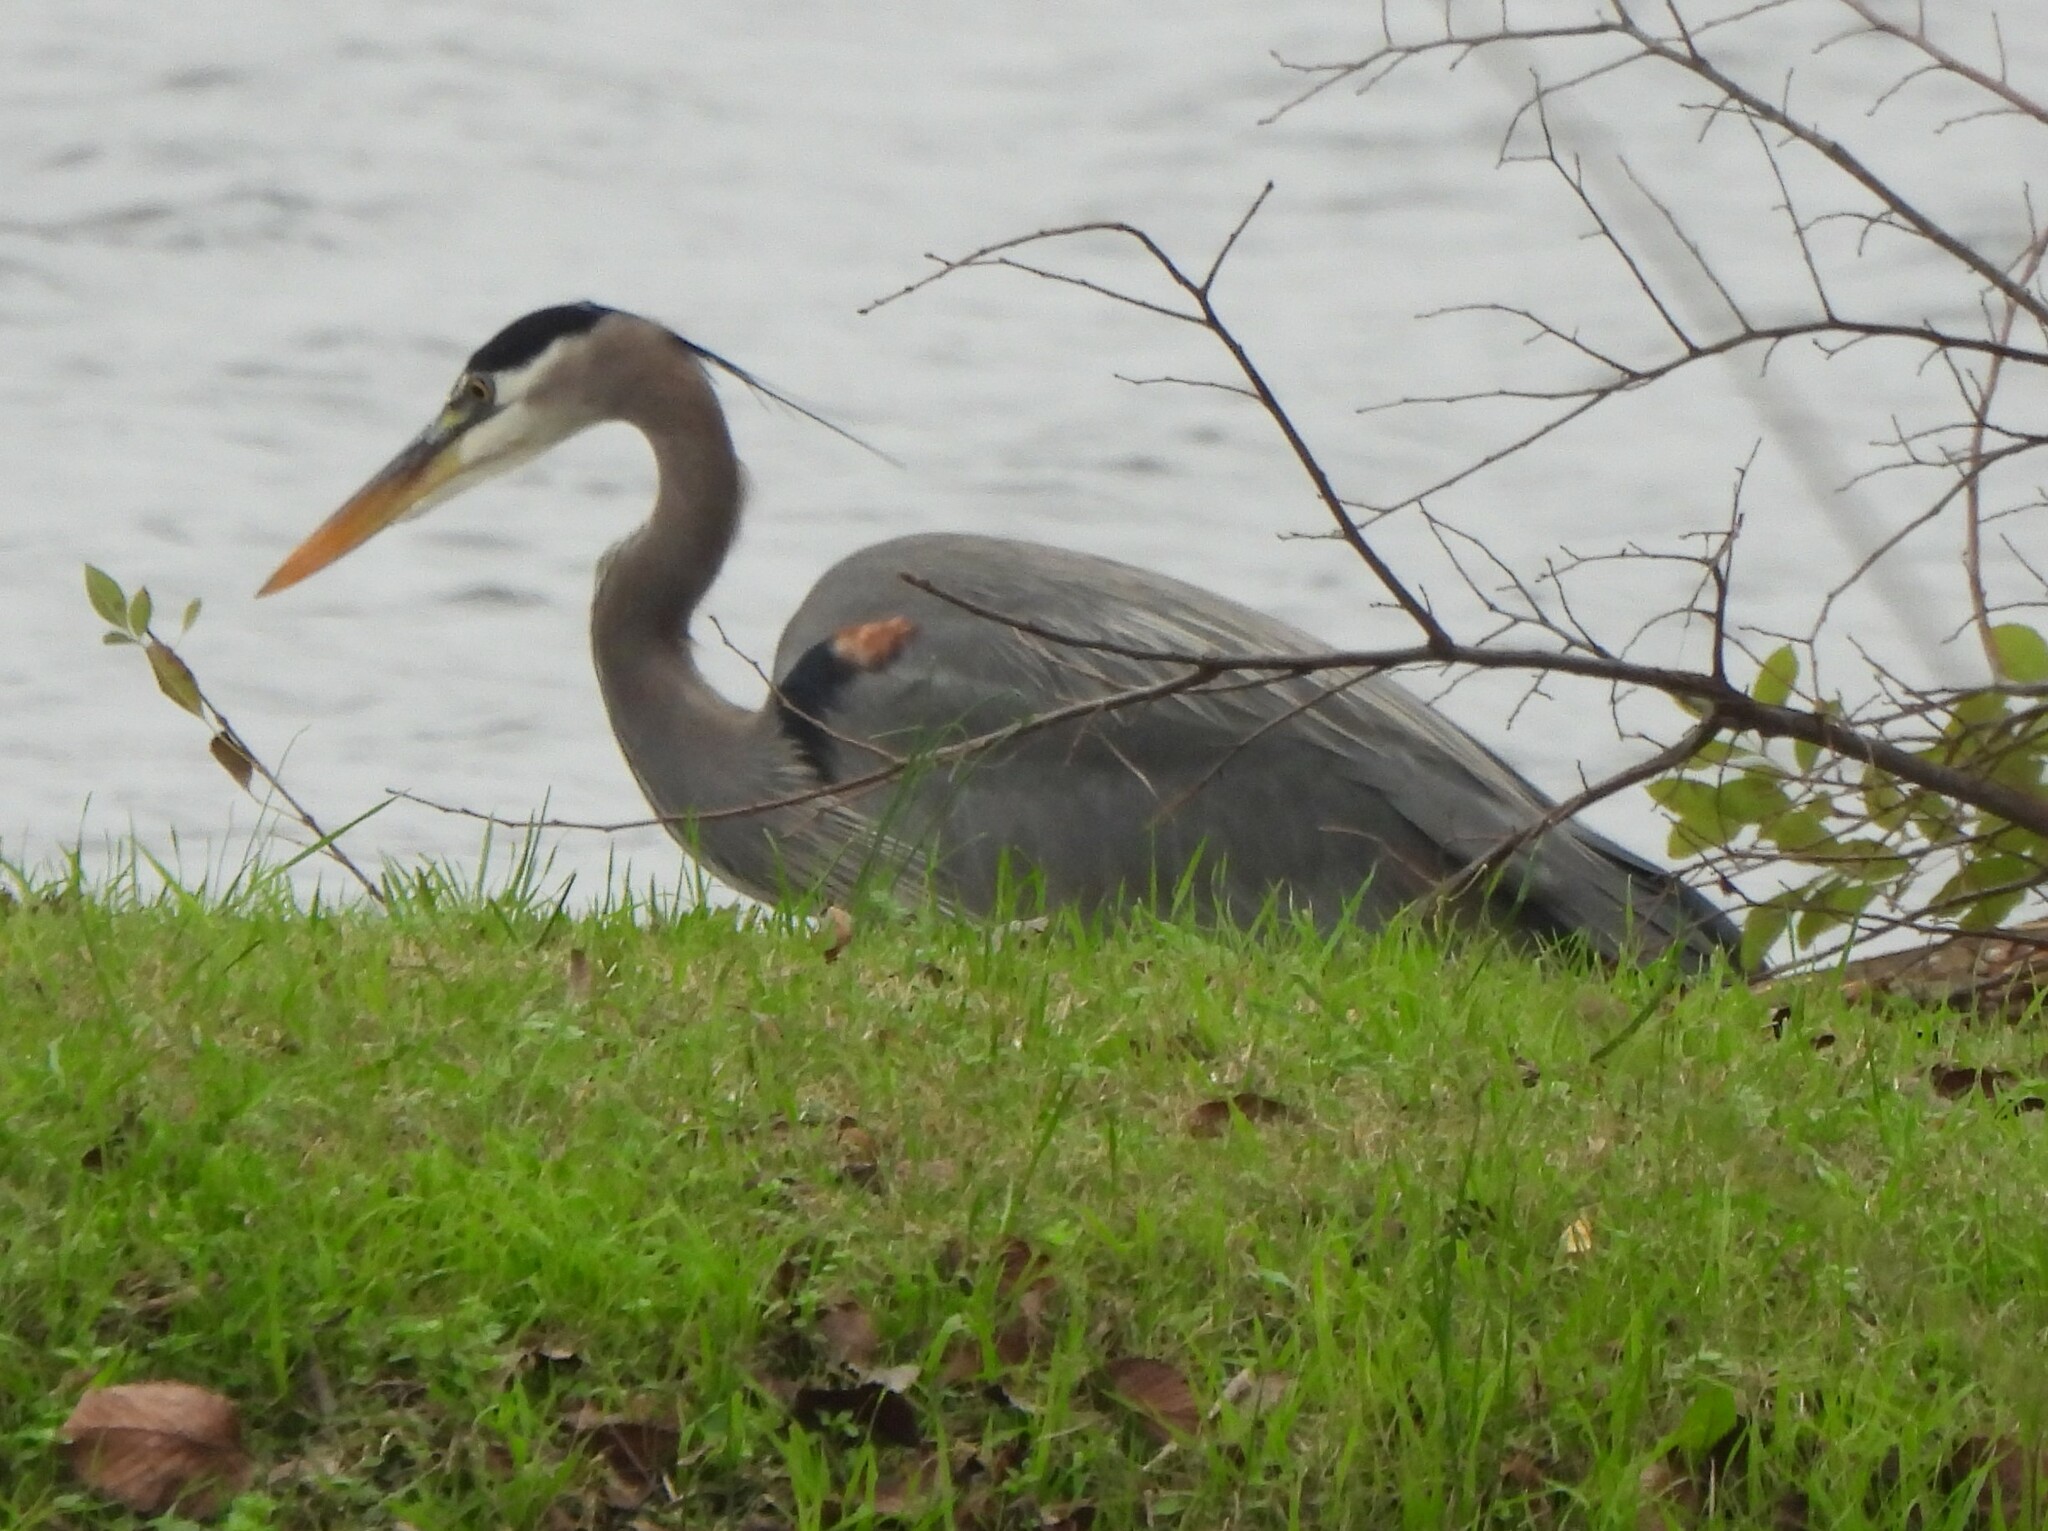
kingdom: Animalia
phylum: Chordata
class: Aves
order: Pelecaniformes
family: Ardeidae
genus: Ardea
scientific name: Ardea herodias
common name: Great blue heron
